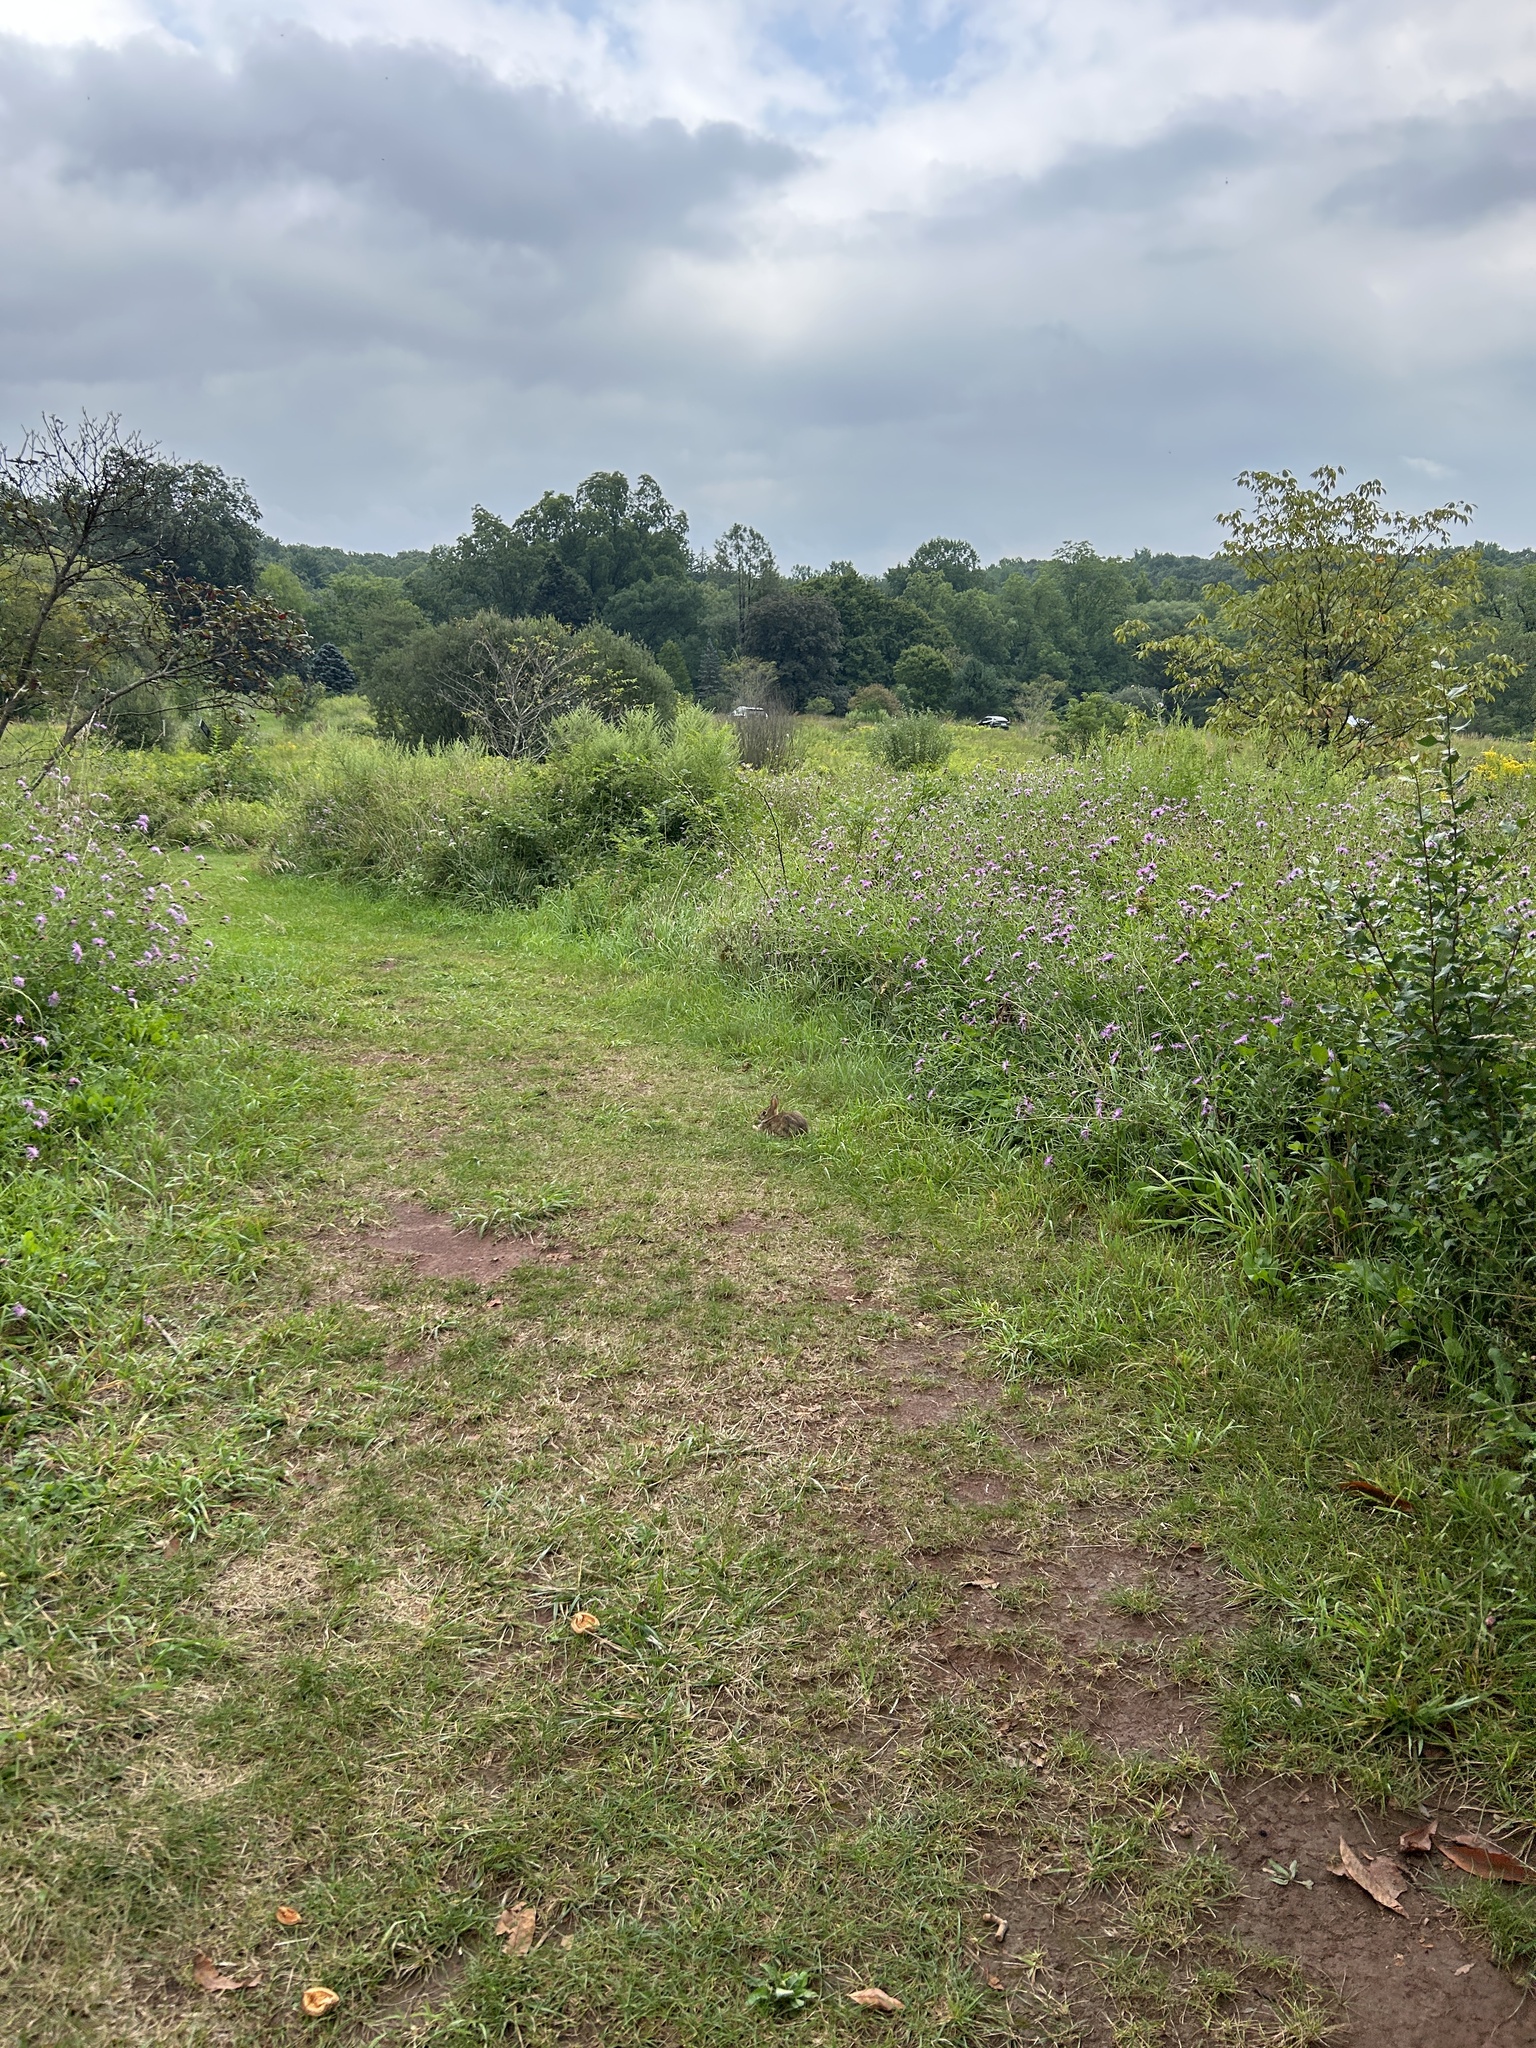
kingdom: Animalia
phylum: Chordata
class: Mammalia
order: Lagomorpha
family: Leporidae
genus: Sylvilagus
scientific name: Sylvilagus floridanus
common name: Eastern cottontail
